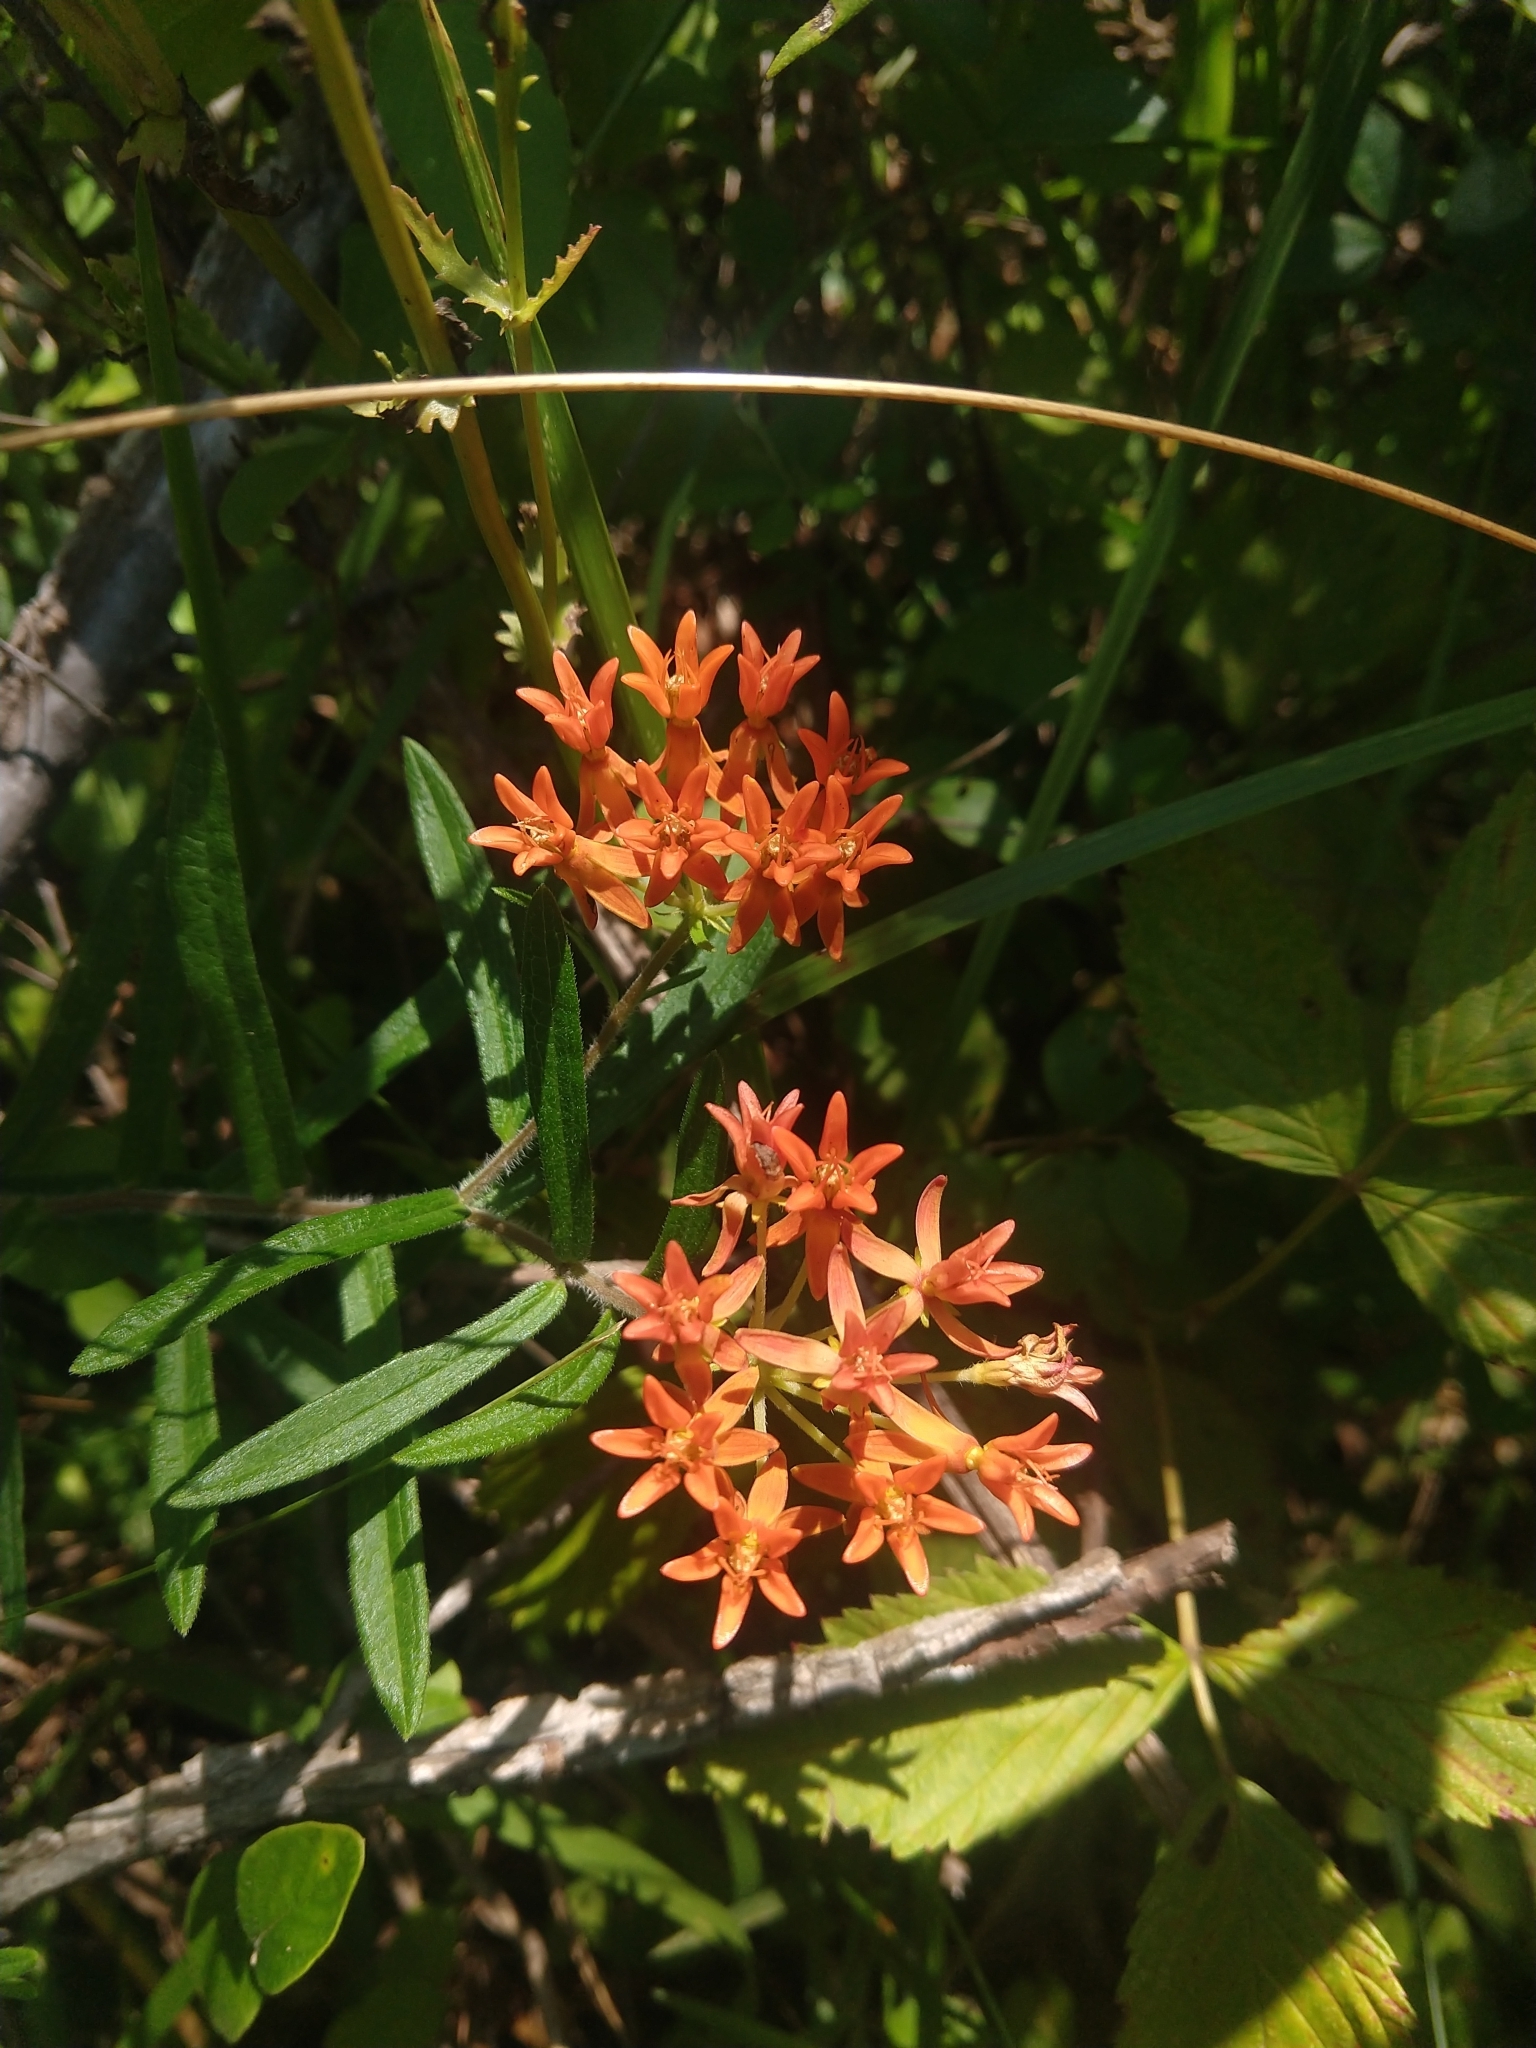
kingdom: Plantae
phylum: Tracheophyta
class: Magnoliopsida
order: Gentianales
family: Apocynaceae
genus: Asclepias
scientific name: Asclepias tuberosa
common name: Butterfly milkweed
